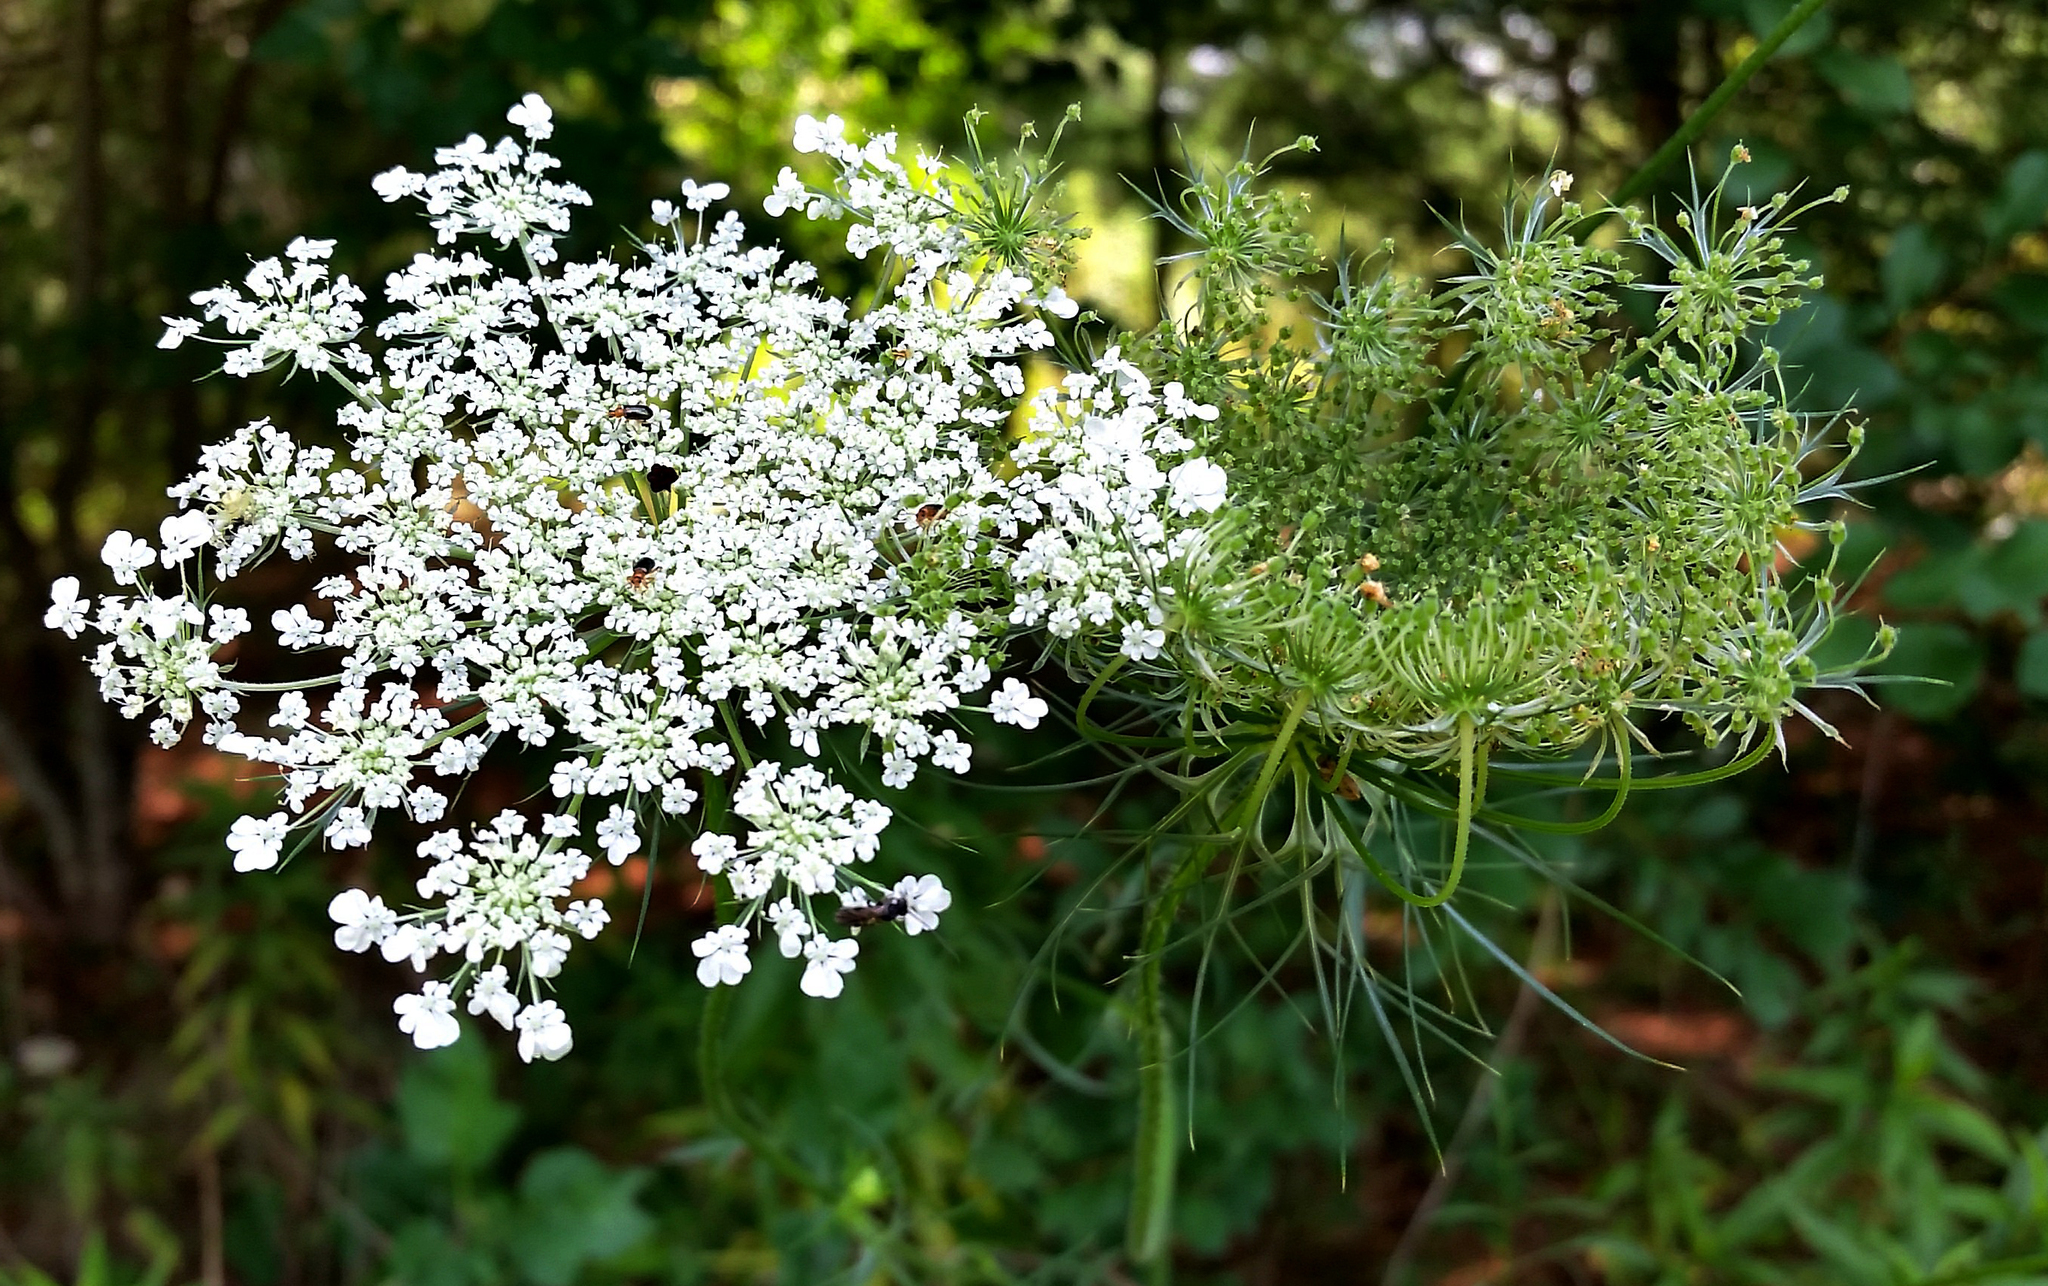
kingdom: Plantae
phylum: Tracheophyta
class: Magnoliopsida
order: Apiales
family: Apiaceae
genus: Daucus
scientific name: Daucus carota
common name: Wild carrot
